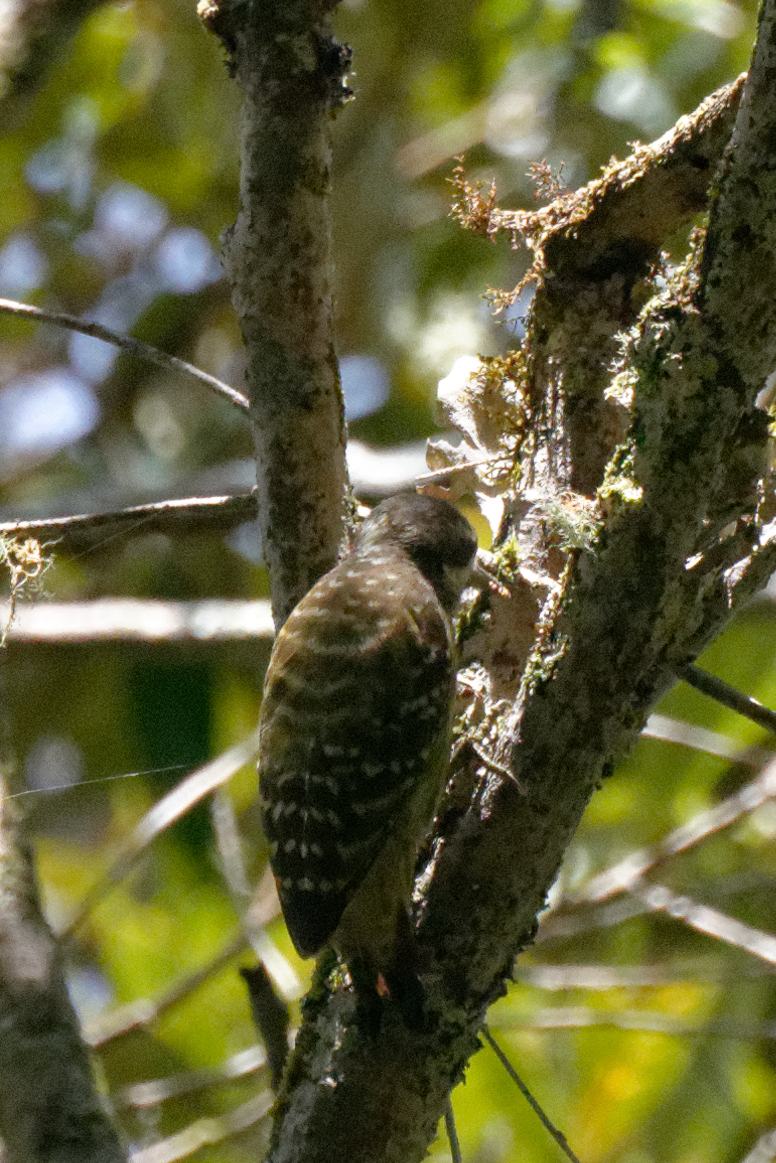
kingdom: Animalia
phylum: Chordata
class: Aves
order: Piciformes
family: Picidae
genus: Yungipicus
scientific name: Yungipicus temminckii
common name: Sulawesi pygmy woodpecker
